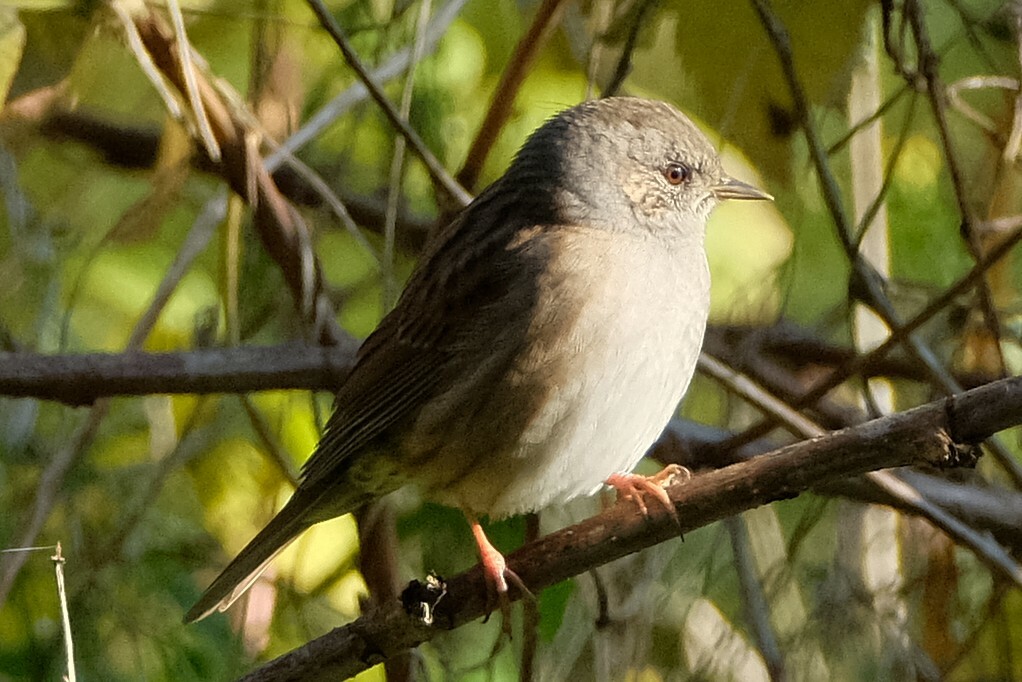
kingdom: Animalia
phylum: Chordata
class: Aves
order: Passeriformes
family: Prunellidae
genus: Prunella
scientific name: Prunella modularis
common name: Dunnock
